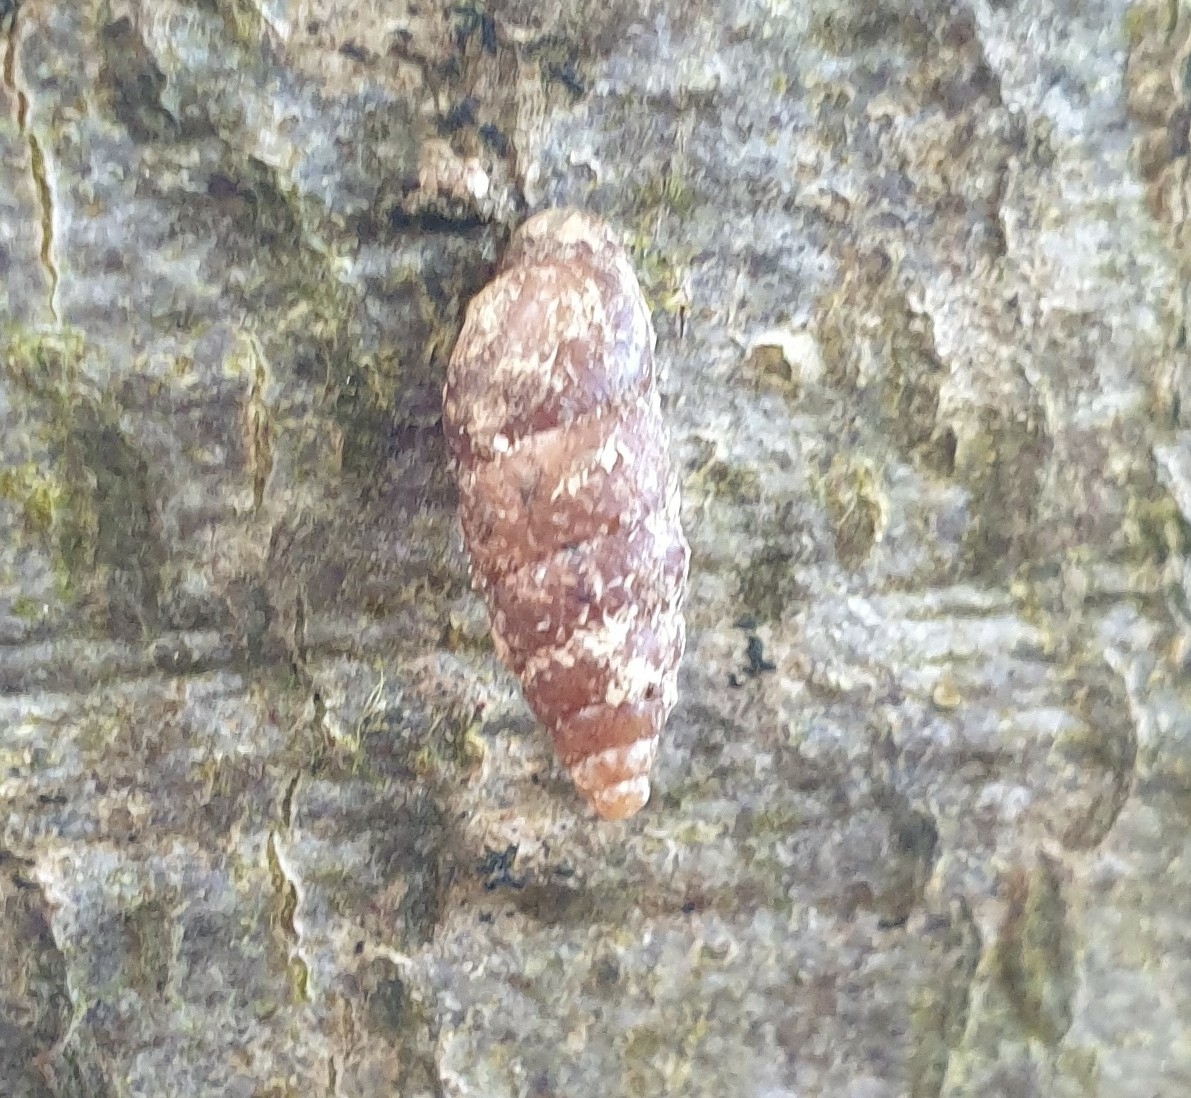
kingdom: Animalia
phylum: Mollusca
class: Gastropoda
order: Stylommatophora
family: Enidae
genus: Merdigera
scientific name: Merdigera obscura
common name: Lesser bulin
